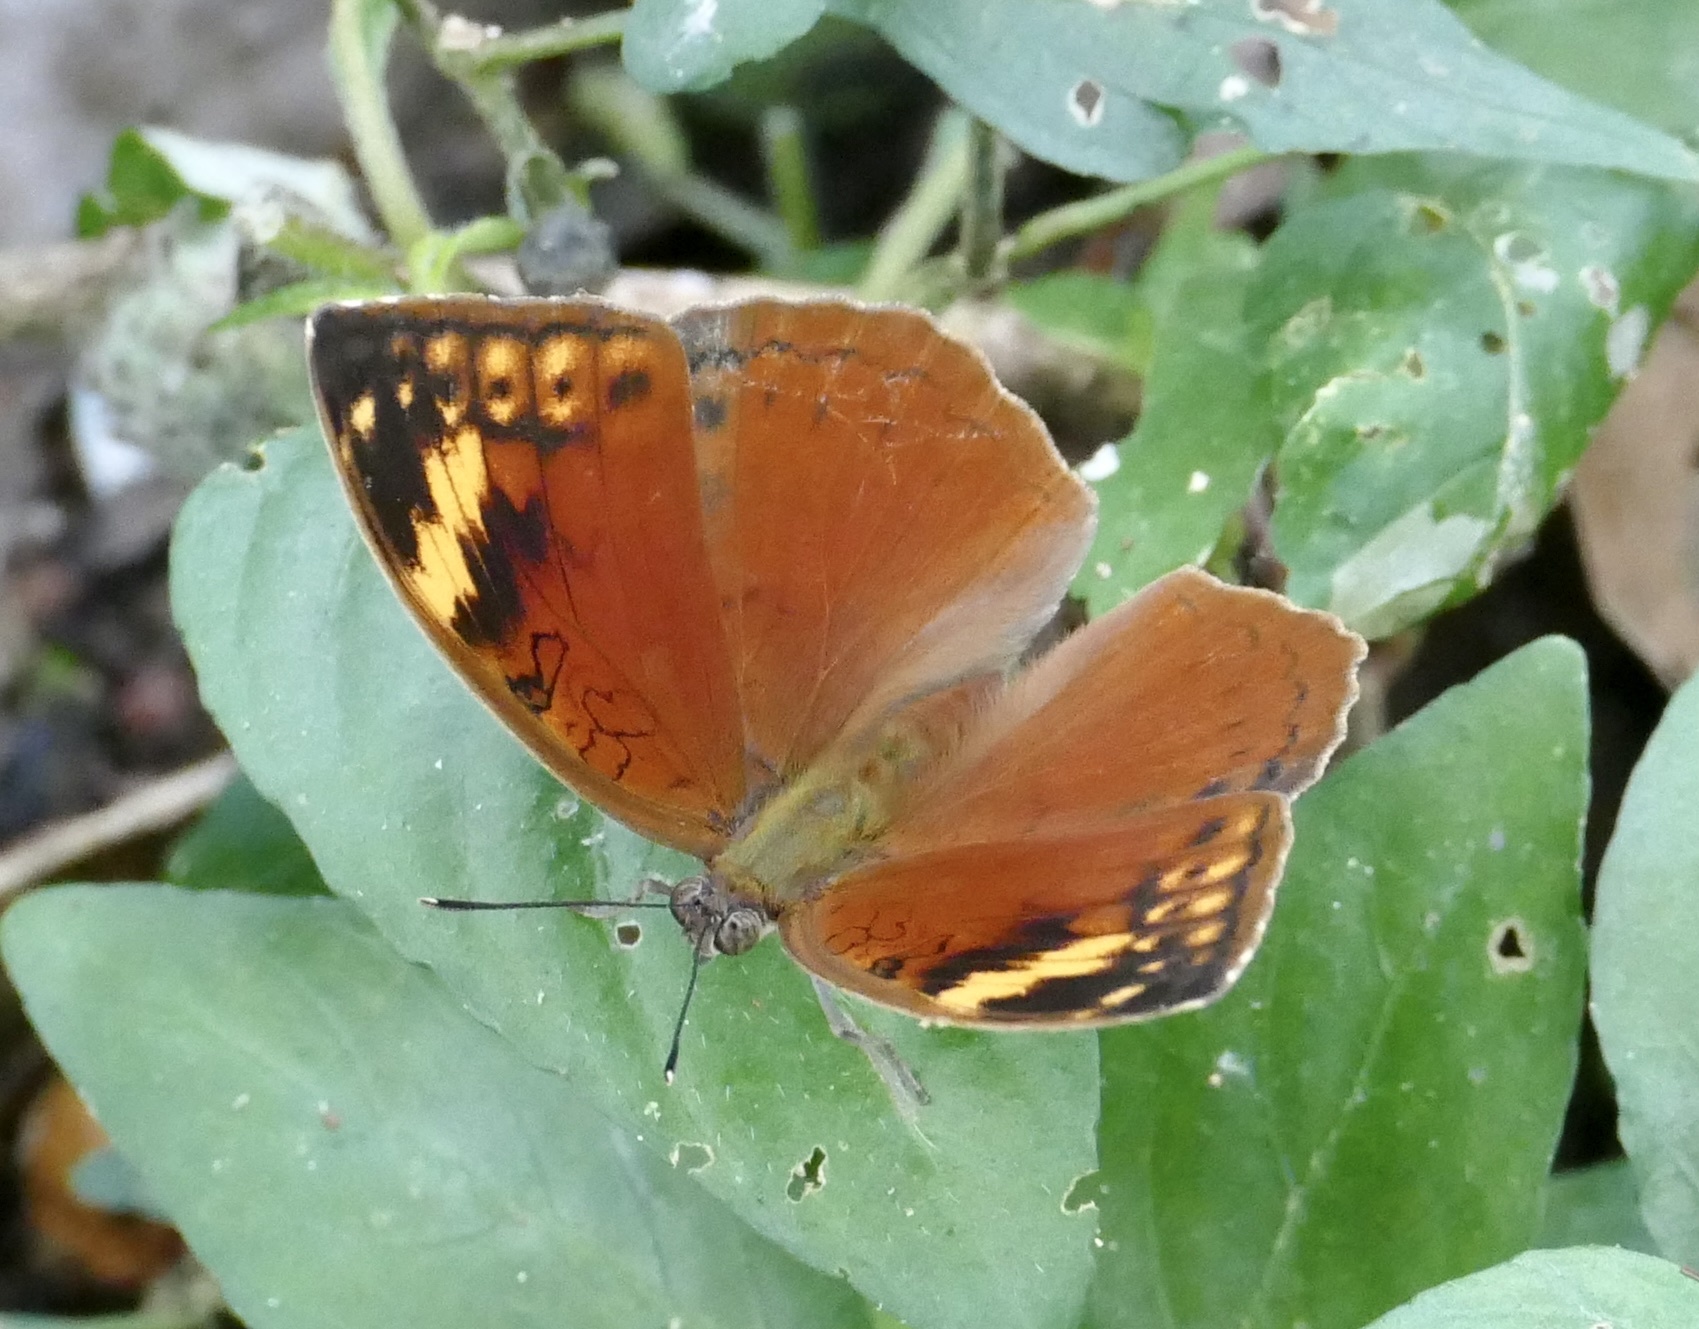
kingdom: Animalia
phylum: Arthropoda
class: Insecta
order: Lepidoptera
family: Nymphalidae
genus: Bebearia
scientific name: Bebearia cocalia
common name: Common palm forester
